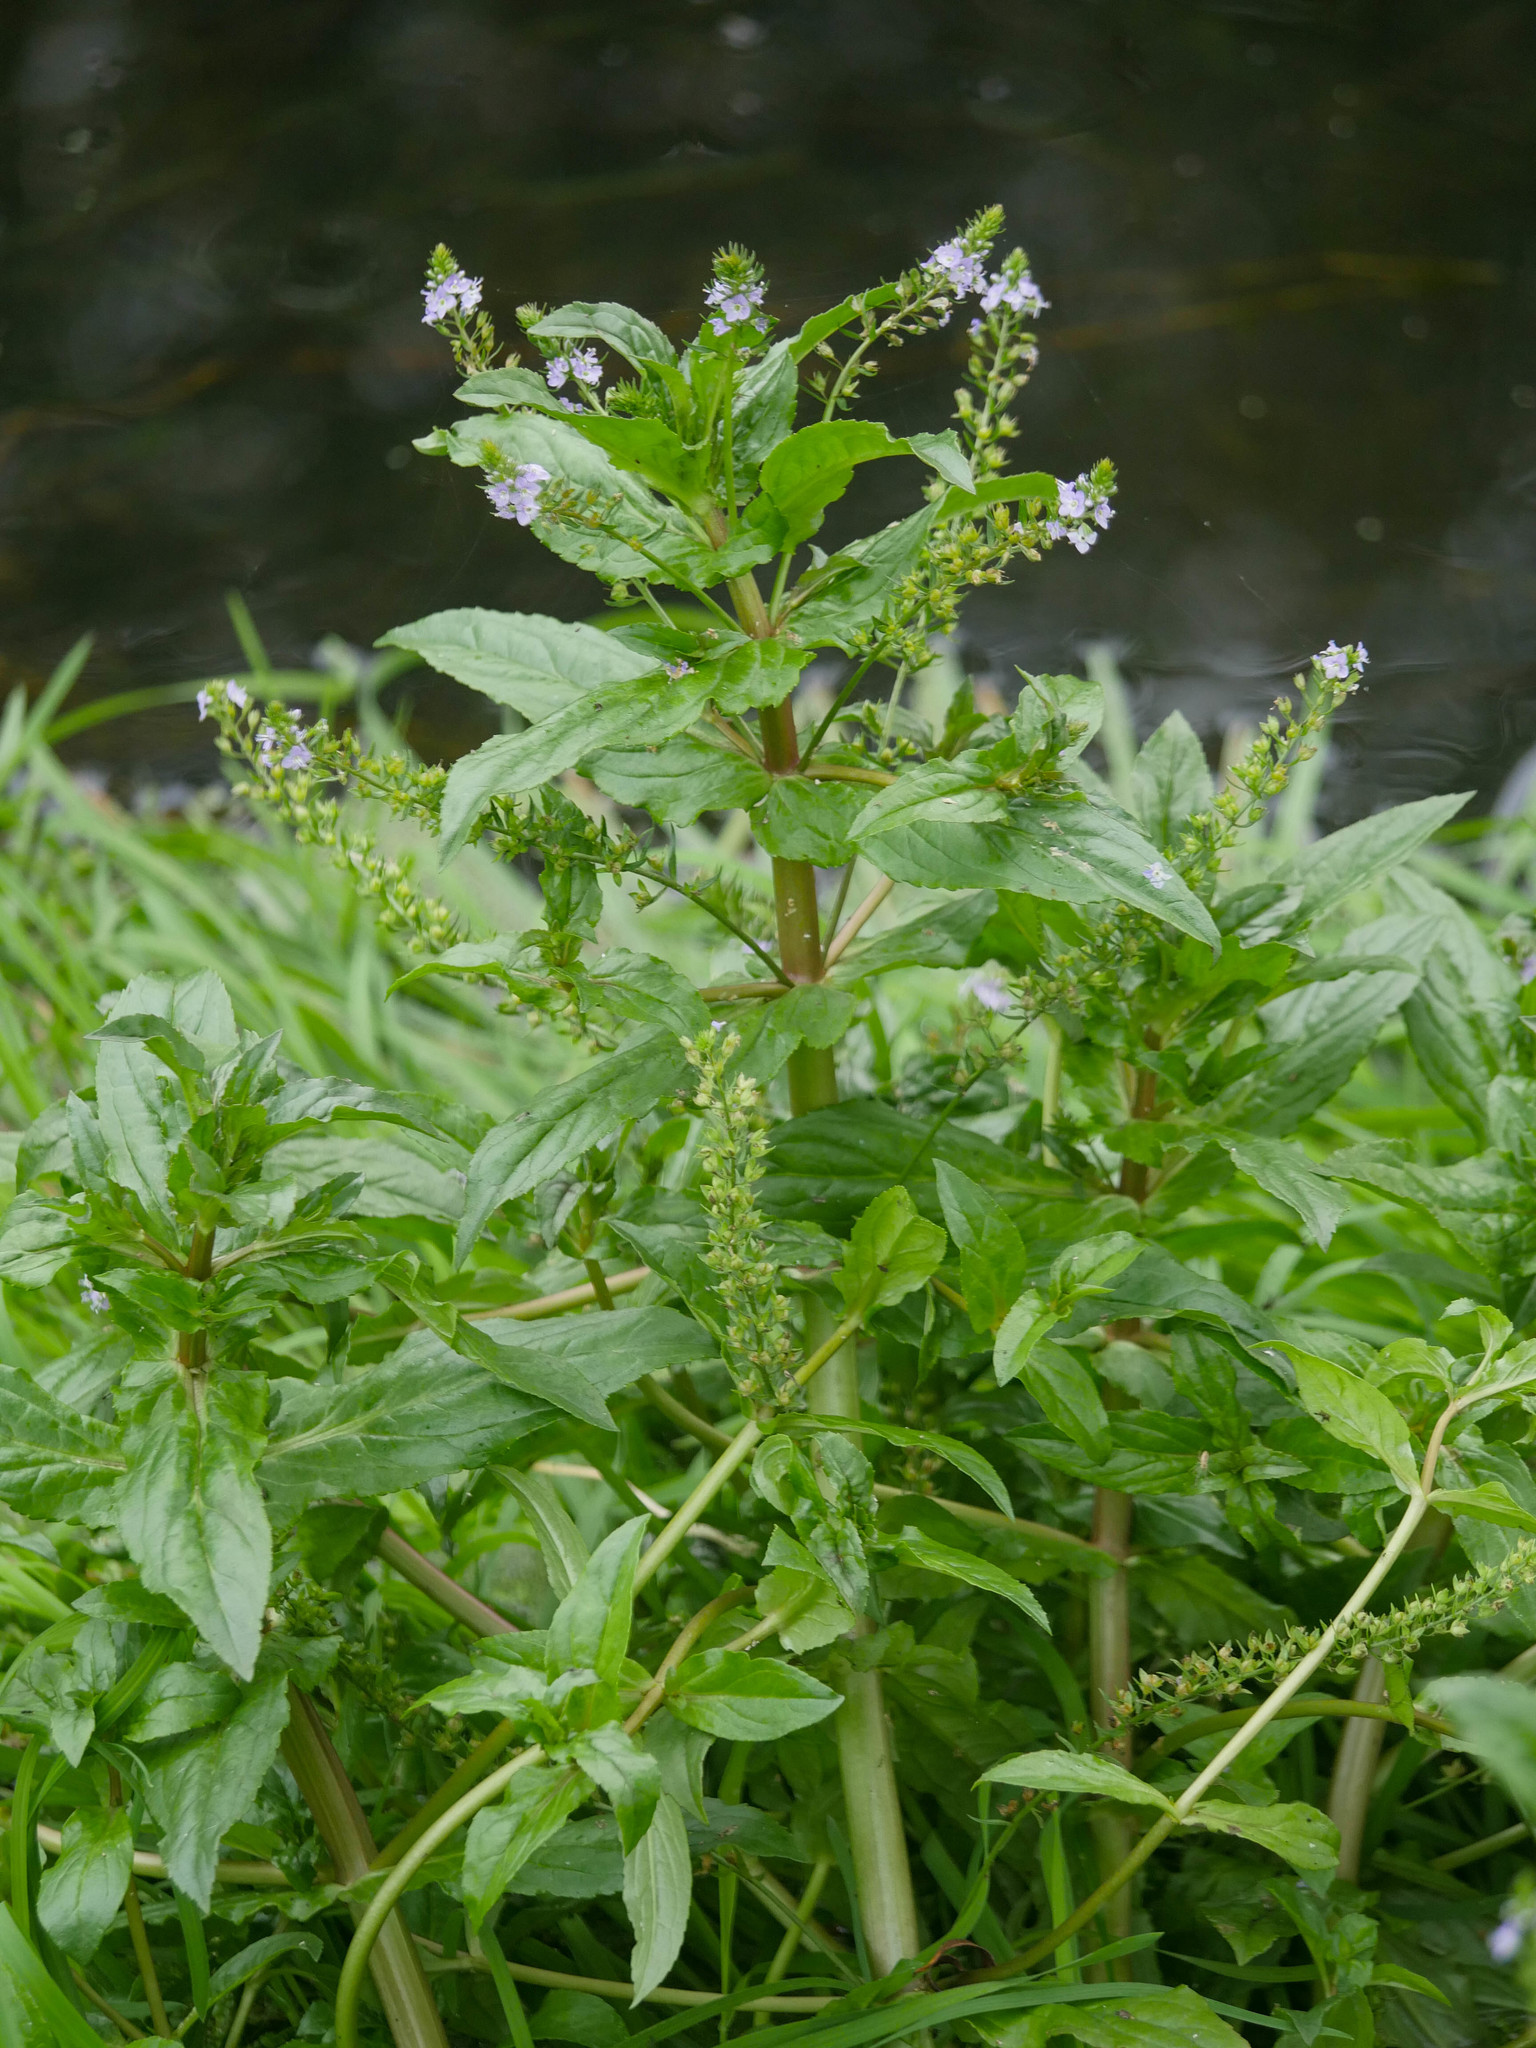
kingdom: Plantae
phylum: Tracheophyta
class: Magnoliopsida
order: Lamiales
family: Plantaginaceae
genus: Veronica
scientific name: Veronica anagallis-aquatica
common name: Water speedwell
